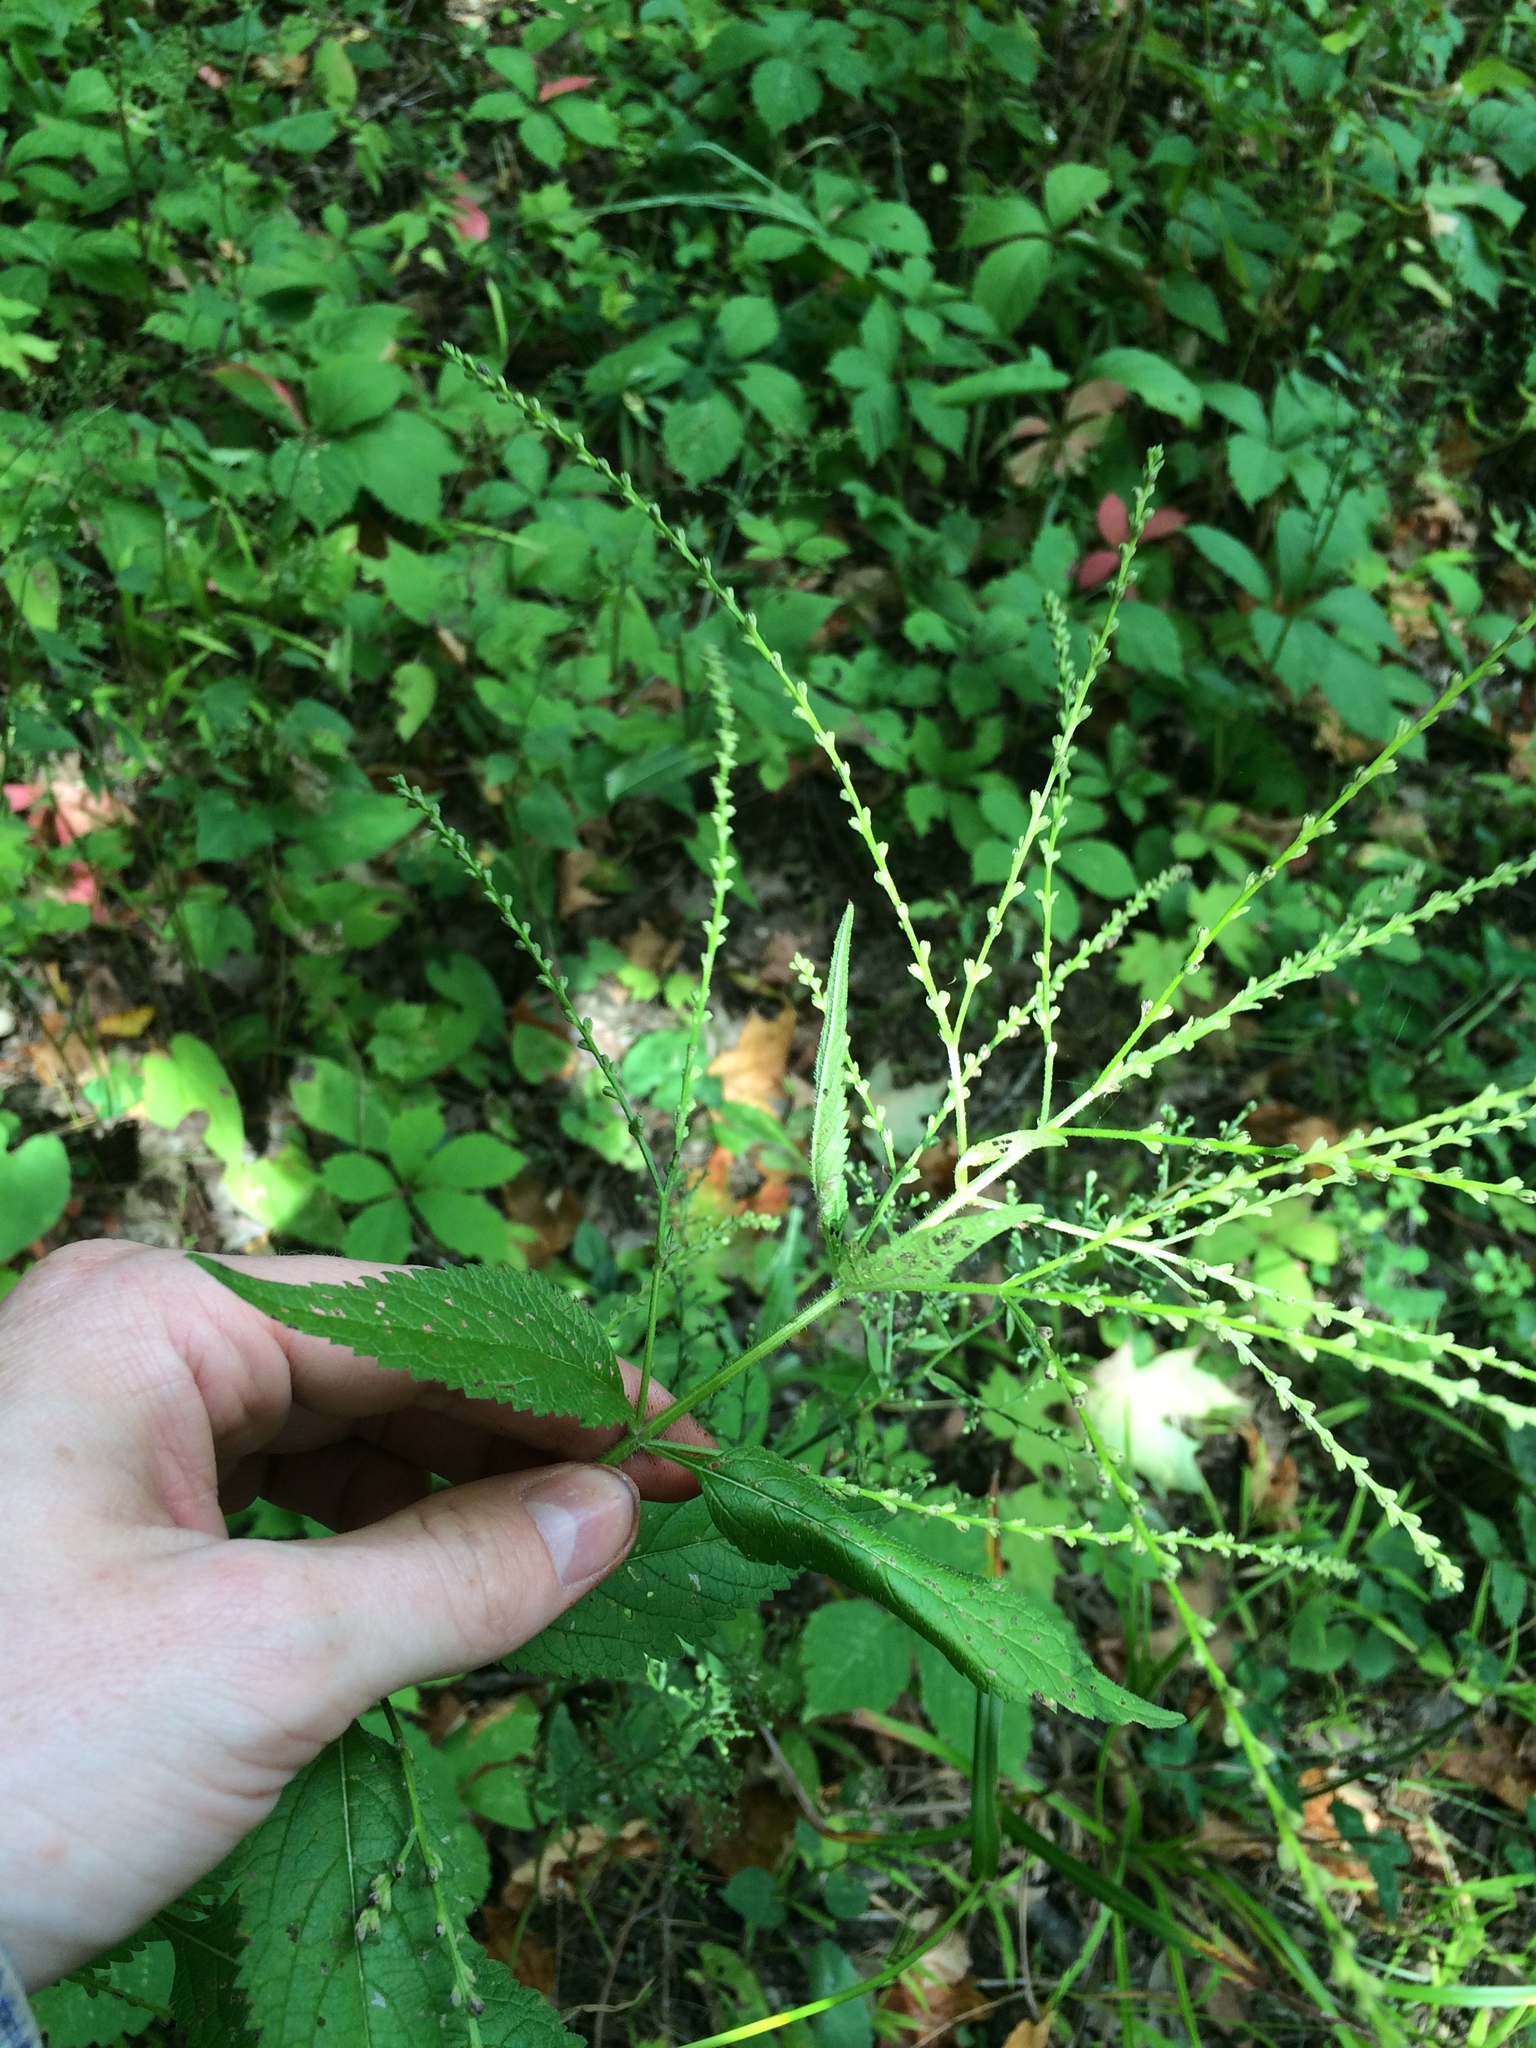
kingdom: Plantae
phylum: Tracheophyta
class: Magnoliopsida
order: Lamiales
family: Verbenaceae
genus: Verbena
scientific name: Verbena urticifolia
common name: Nettle-leaved vervain
